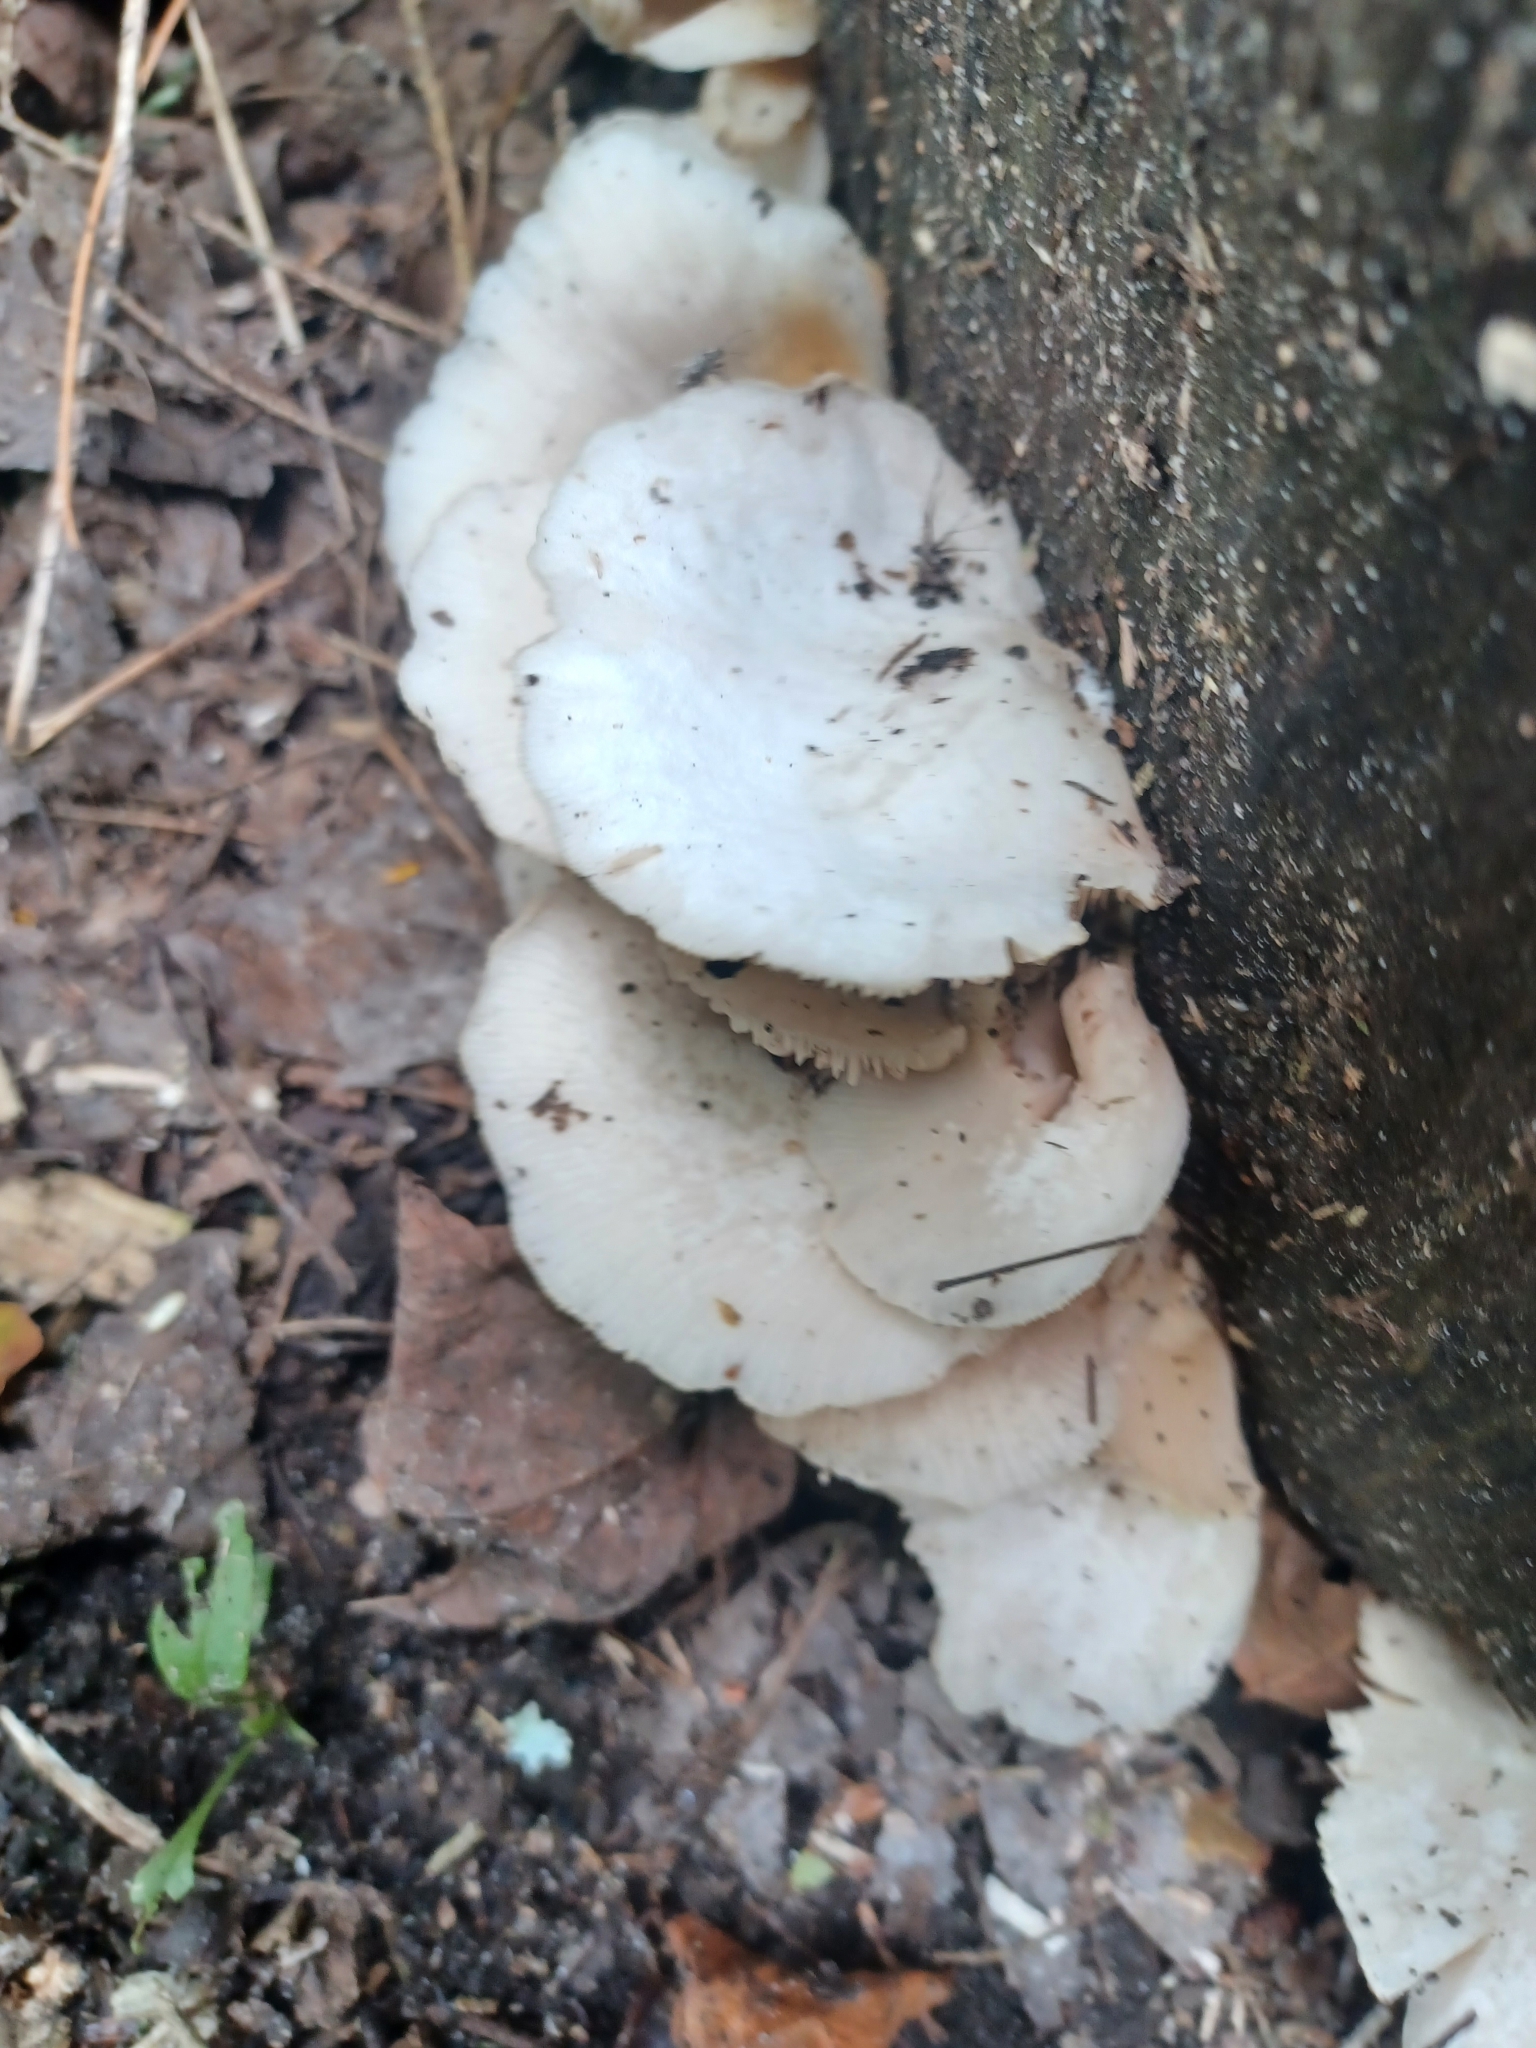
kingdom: Fungi
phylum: Basidiomycota
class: Agaricomycetes
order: Agaricales
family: Crepidotaceae
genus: Crepidotus
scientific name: Crepidotus applanatus
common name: Flat crep
